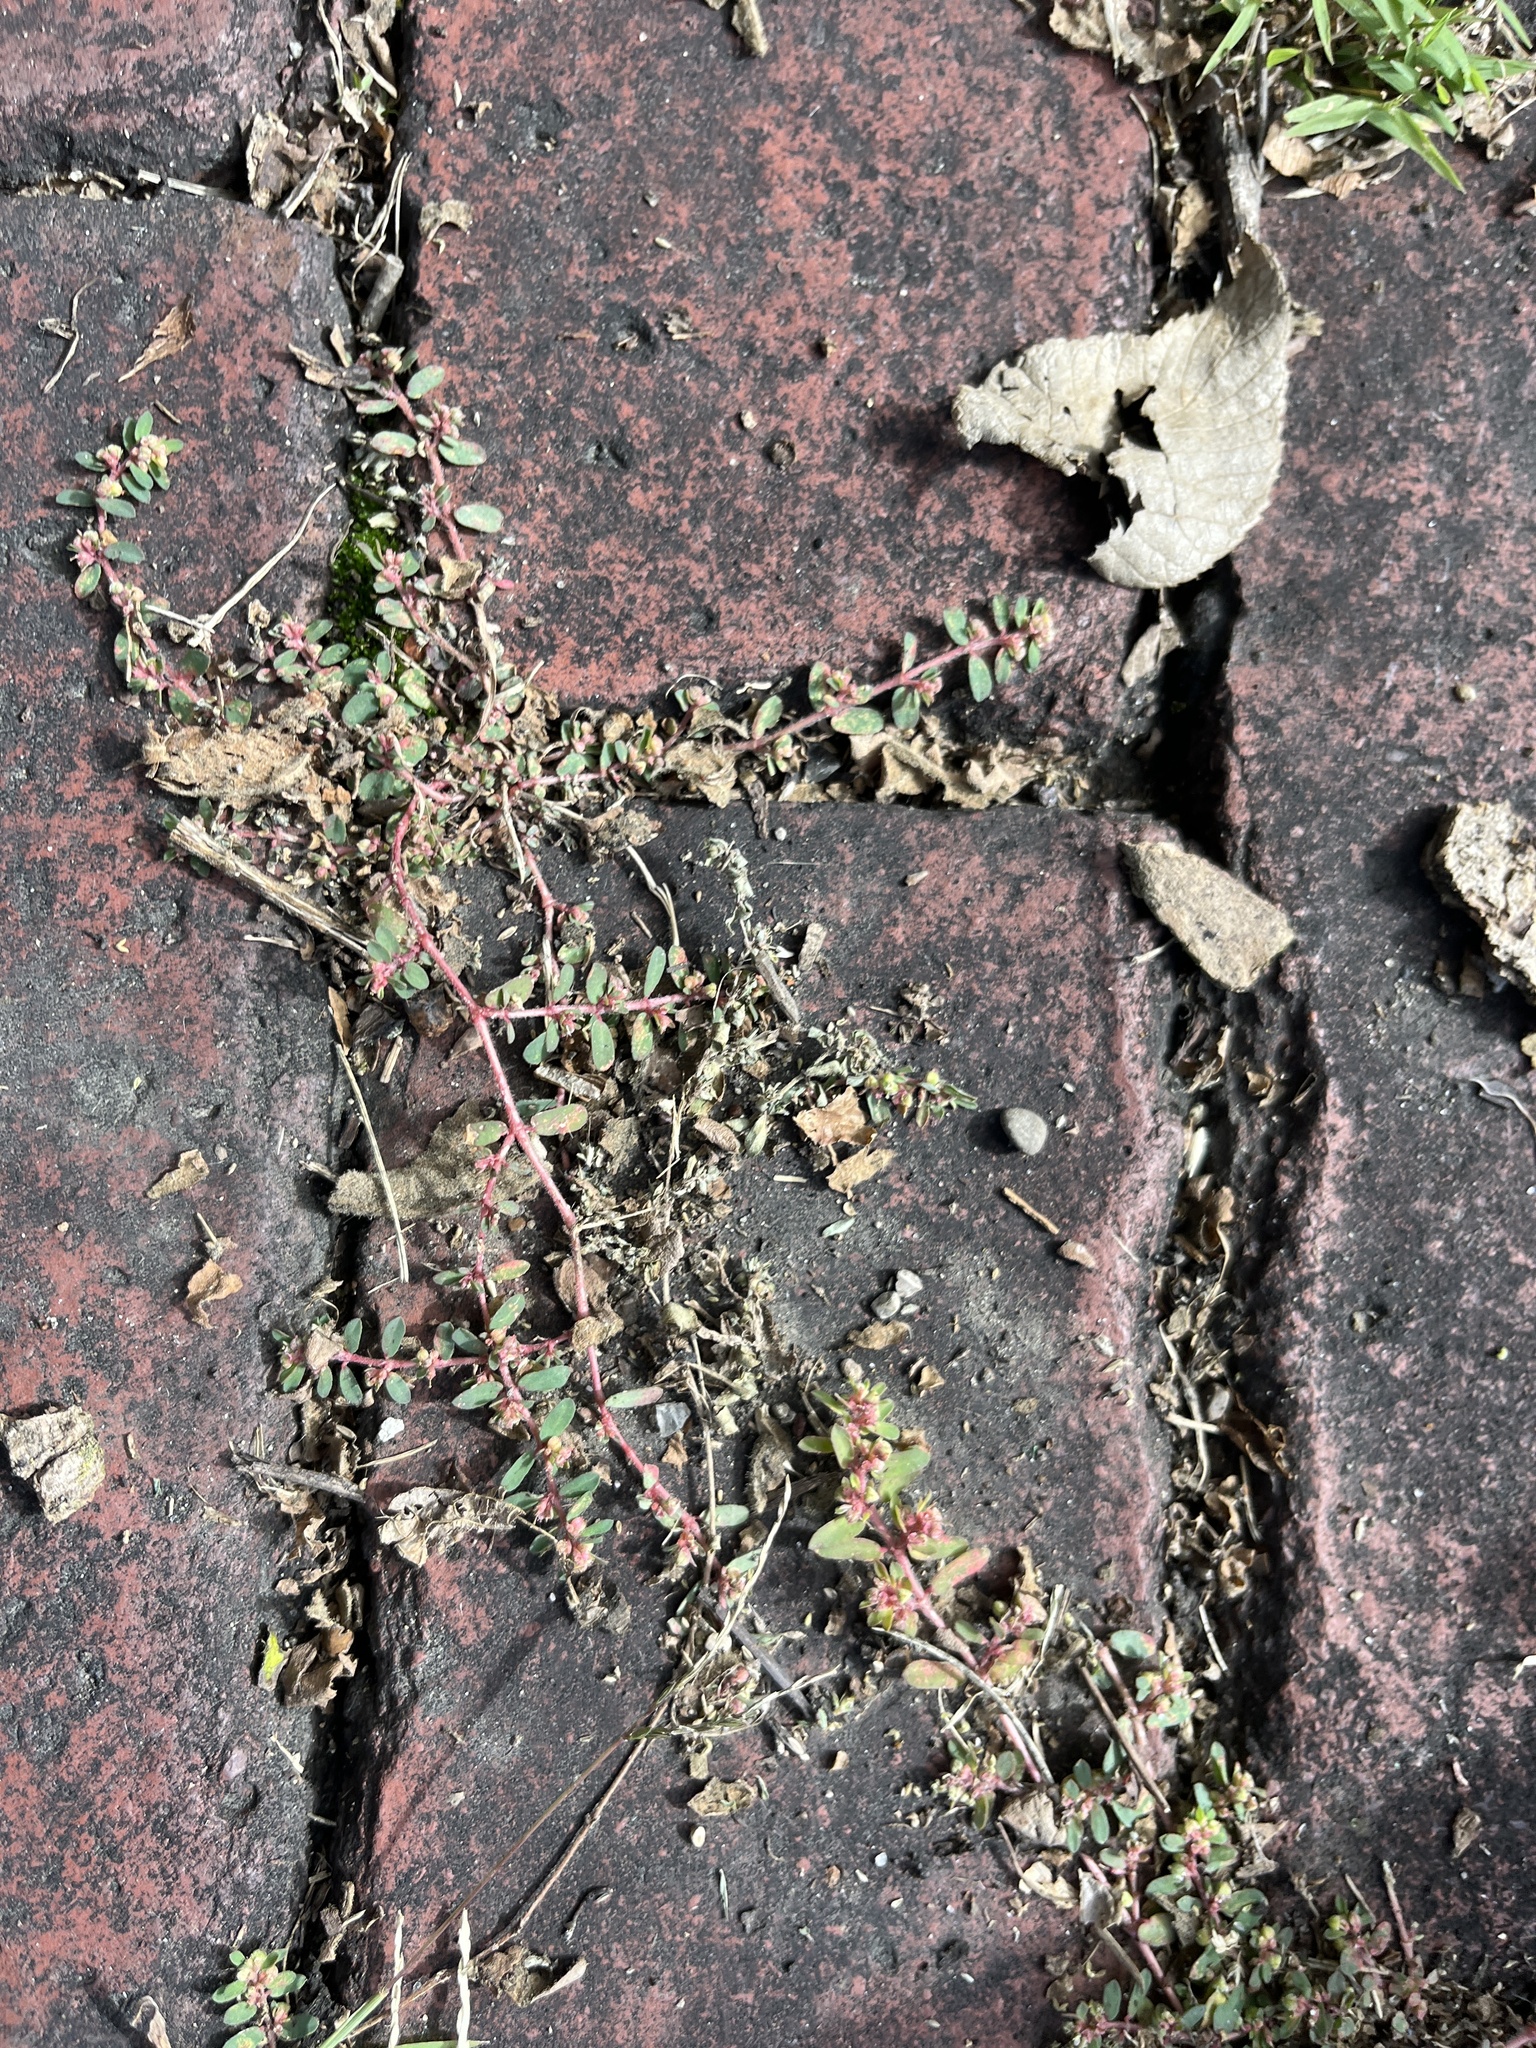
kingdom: Plantae
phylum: Tracheophyta
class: Magnoliopsida
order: Malpighiales
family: Euphorbiaceae
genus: Euphorbia
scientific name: Euphorbia maculata
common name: Spotted spurge
